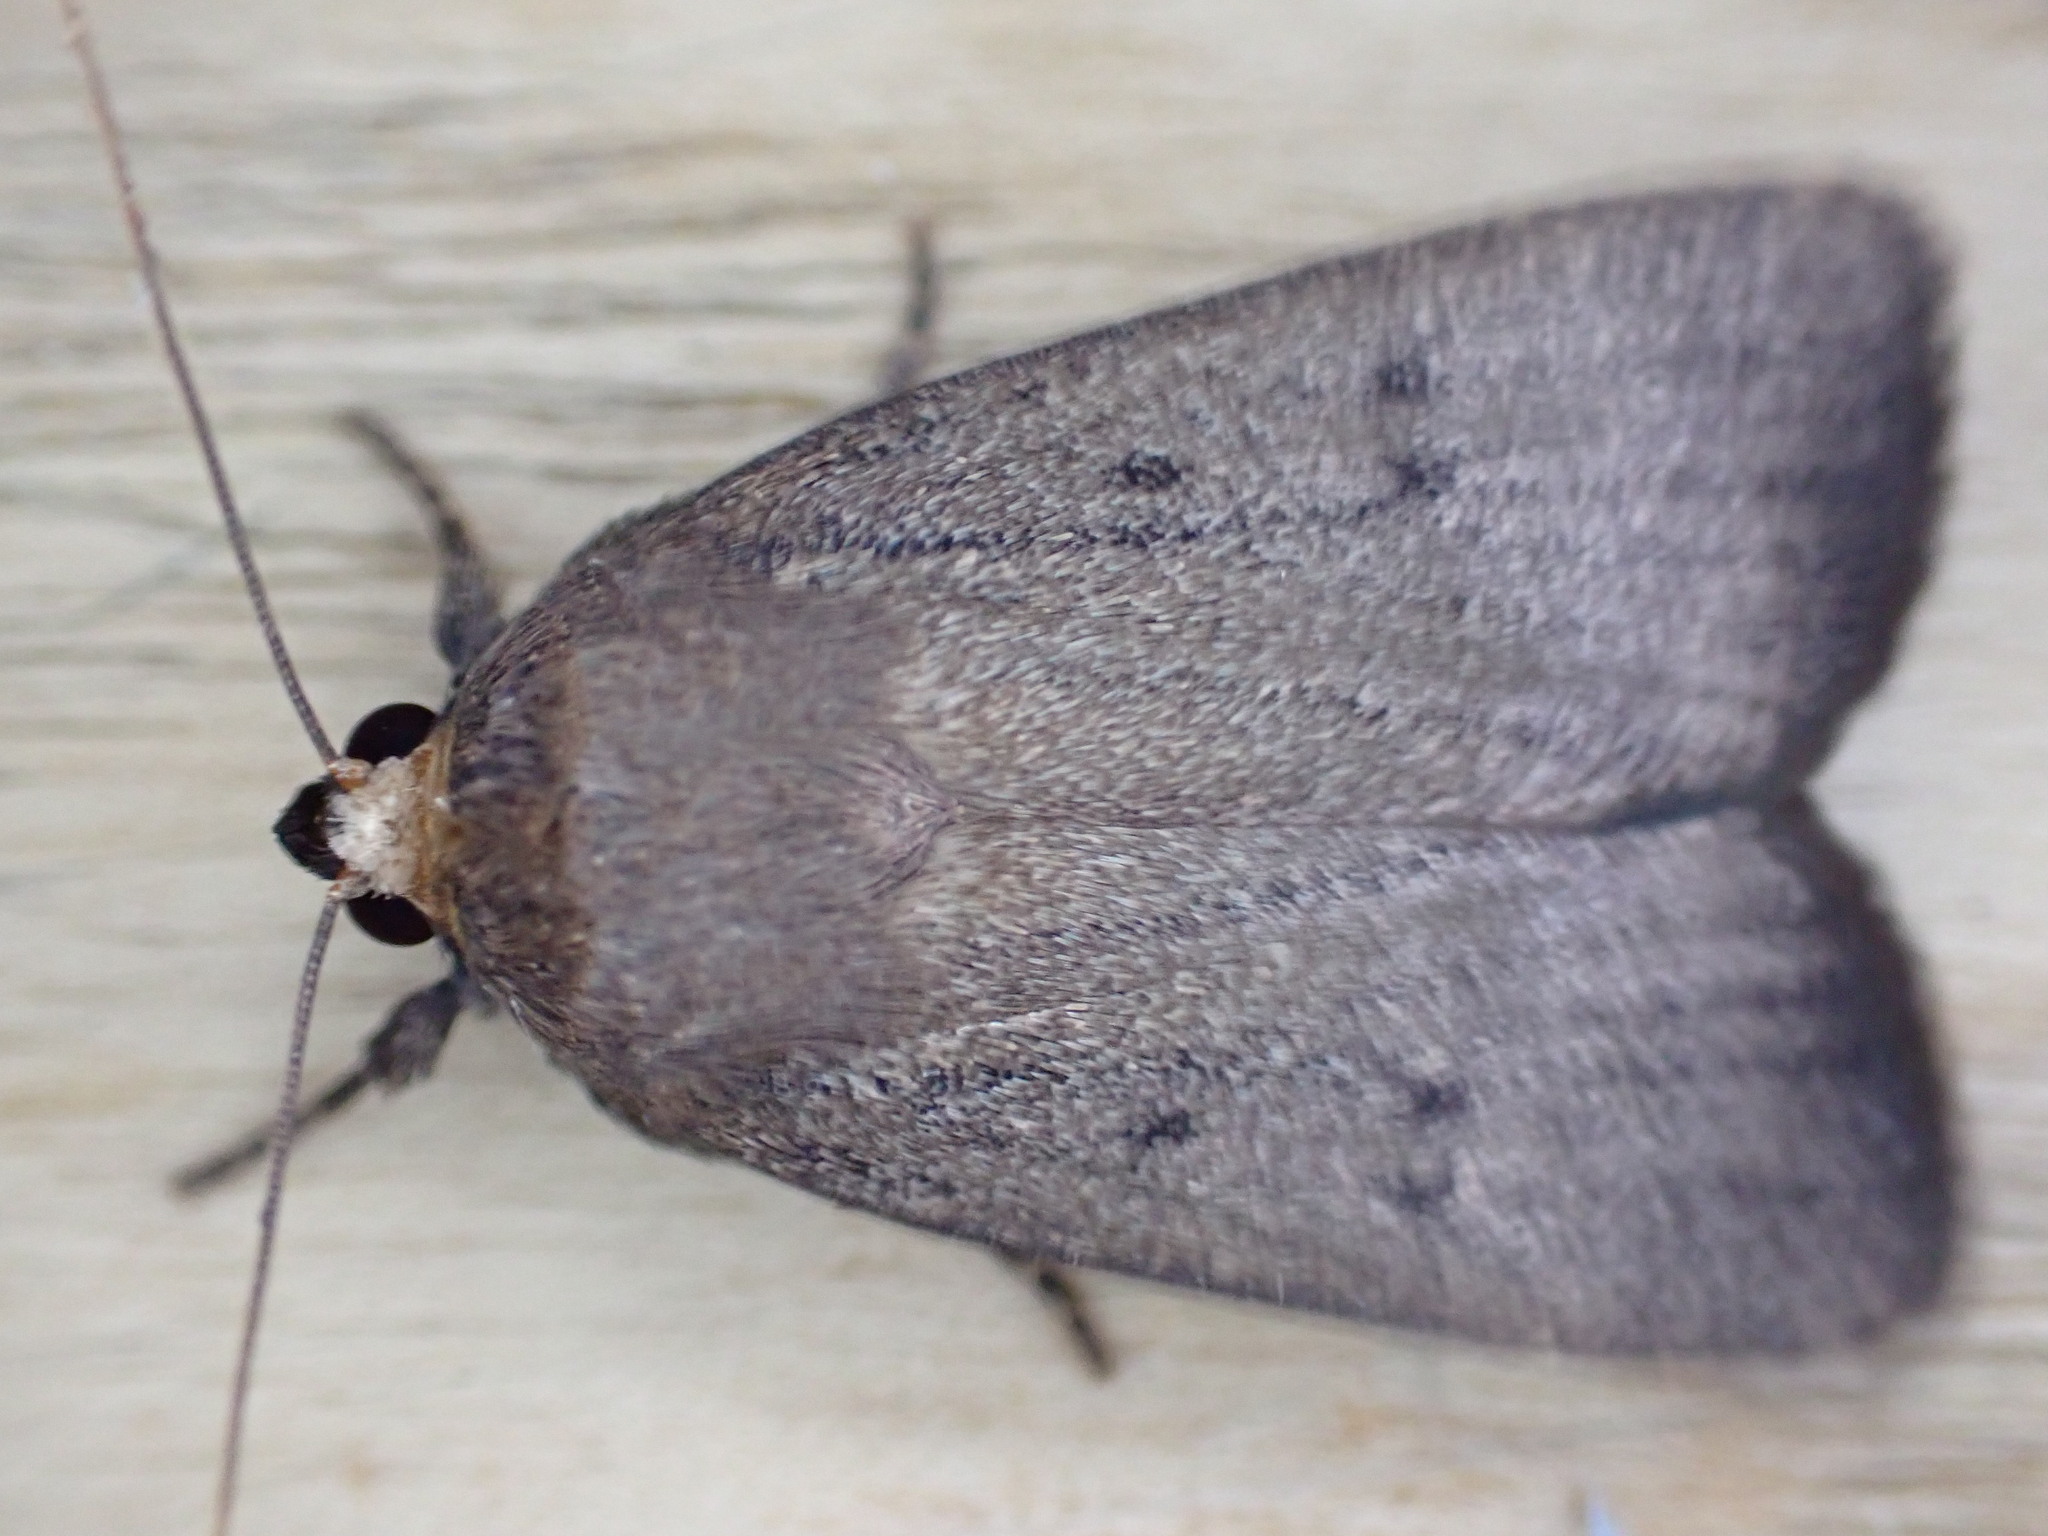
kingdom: Animalia
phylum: Arthropoda
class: Insecta
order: Lepidoptera
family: Noctuidae
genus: Amphipyra
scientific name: Amphipyra tragopoginis
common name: Mouse moth
